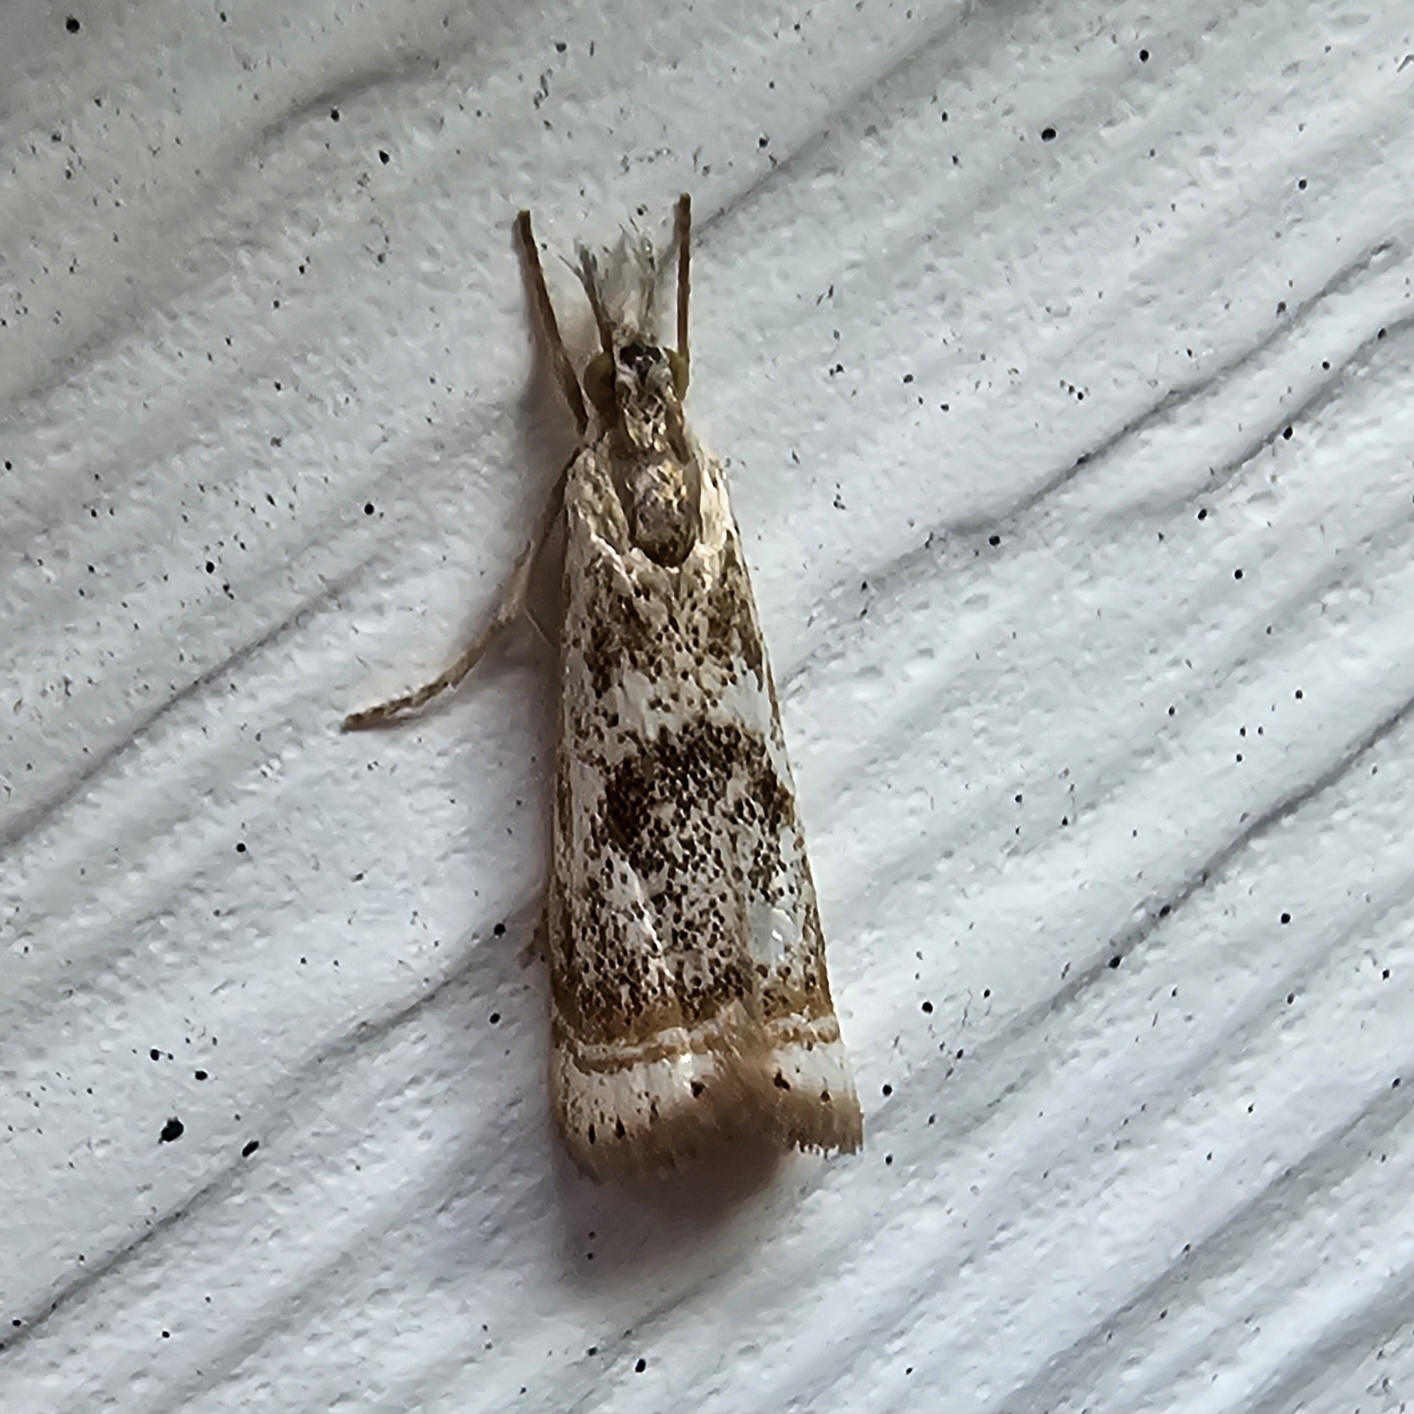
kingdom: Animalia
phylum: Arthropoda
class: Insecta
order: Lepidoptera
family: Crambidae
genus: Microcrambus
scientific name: Microcrambus elegans
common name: Elegant grass-veneer
